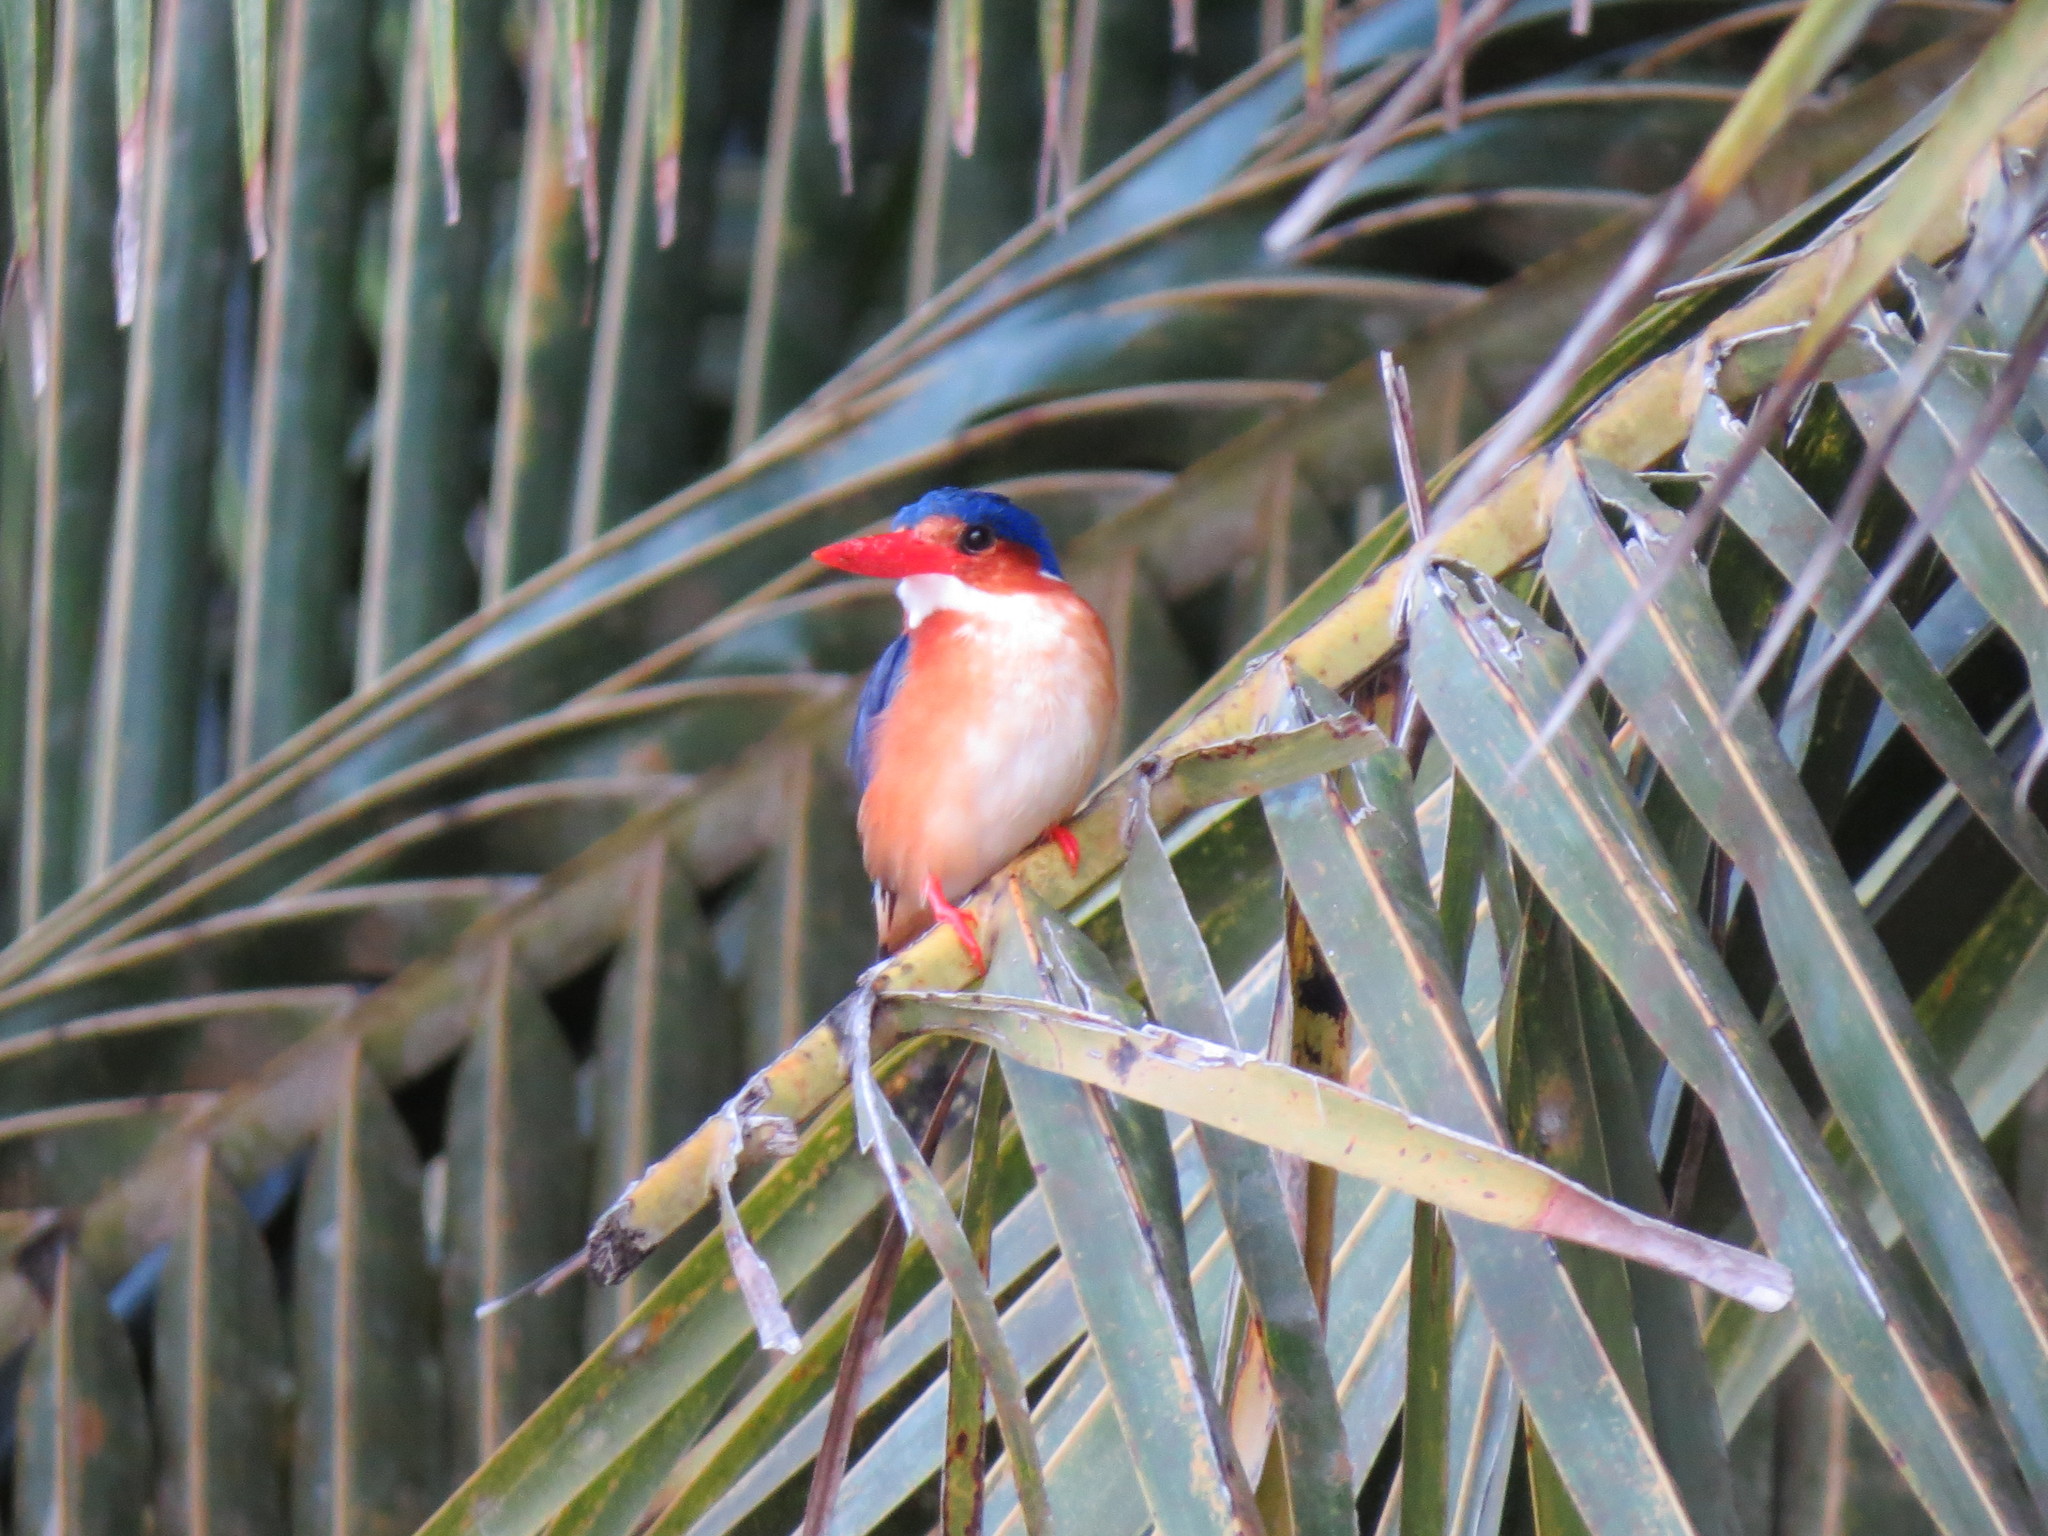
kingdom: Animalia
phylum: Chordata
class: Aves
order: Coraciiformes
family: Alcedinidae
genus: Corythornis
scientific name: Corythornis cristatus
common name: Malachite kingfisher
